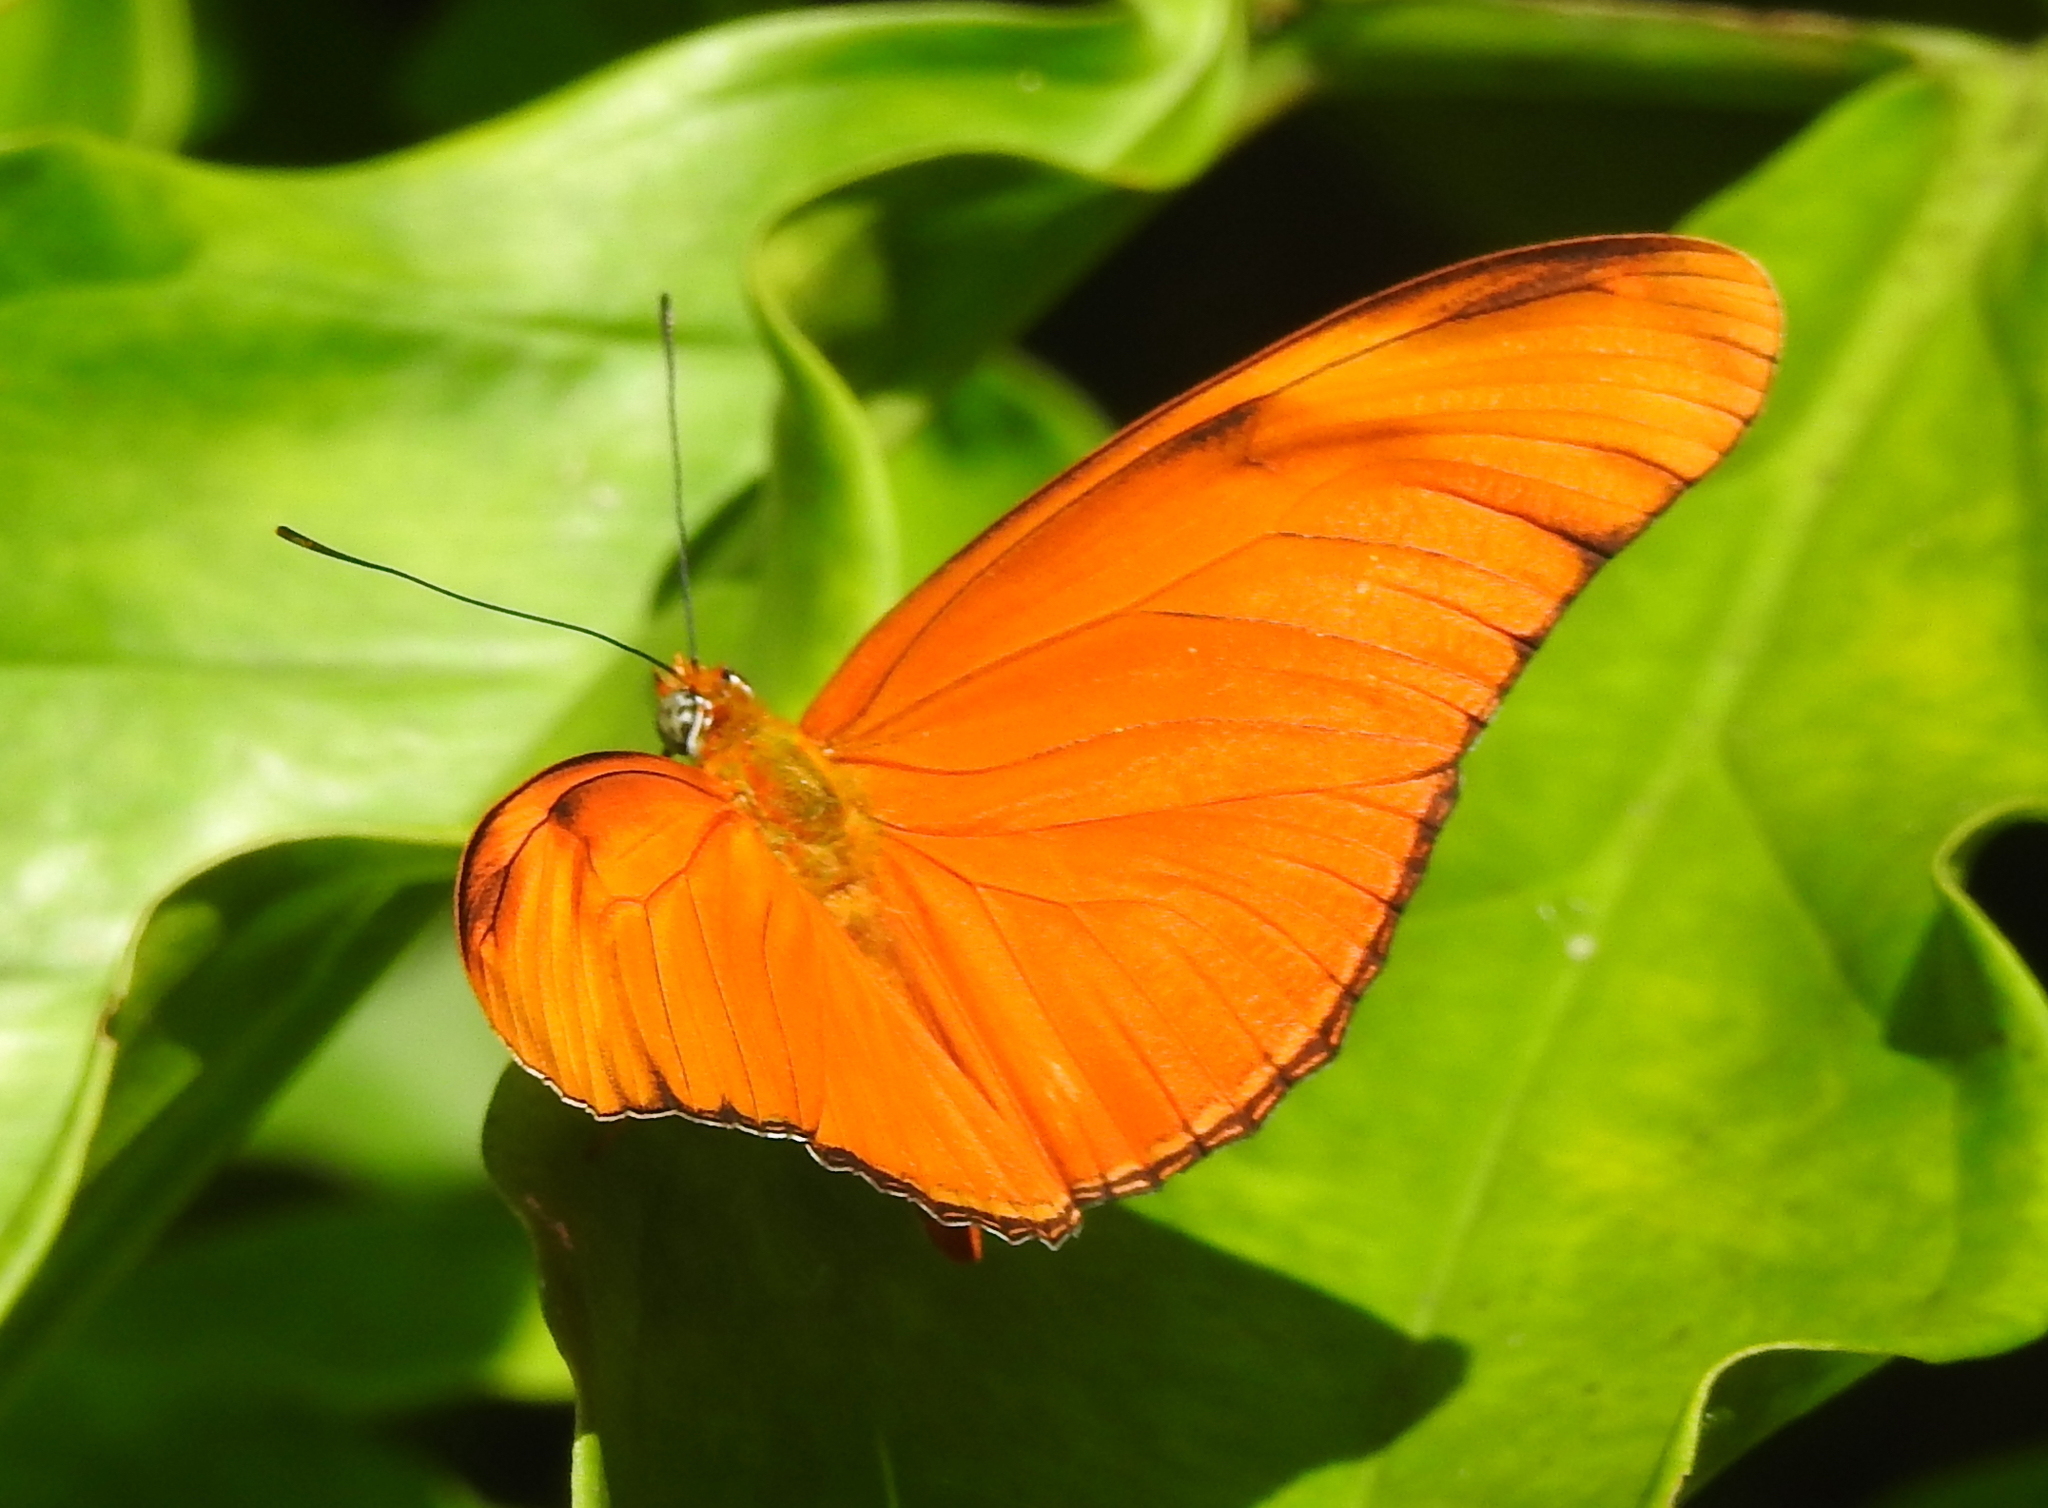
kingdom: Animalia
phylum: Arthropoda
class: Insecta
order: Lepidoptera
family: Nymphalidae
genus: Dryas
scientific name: Dryas iulia
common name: Flambeau
